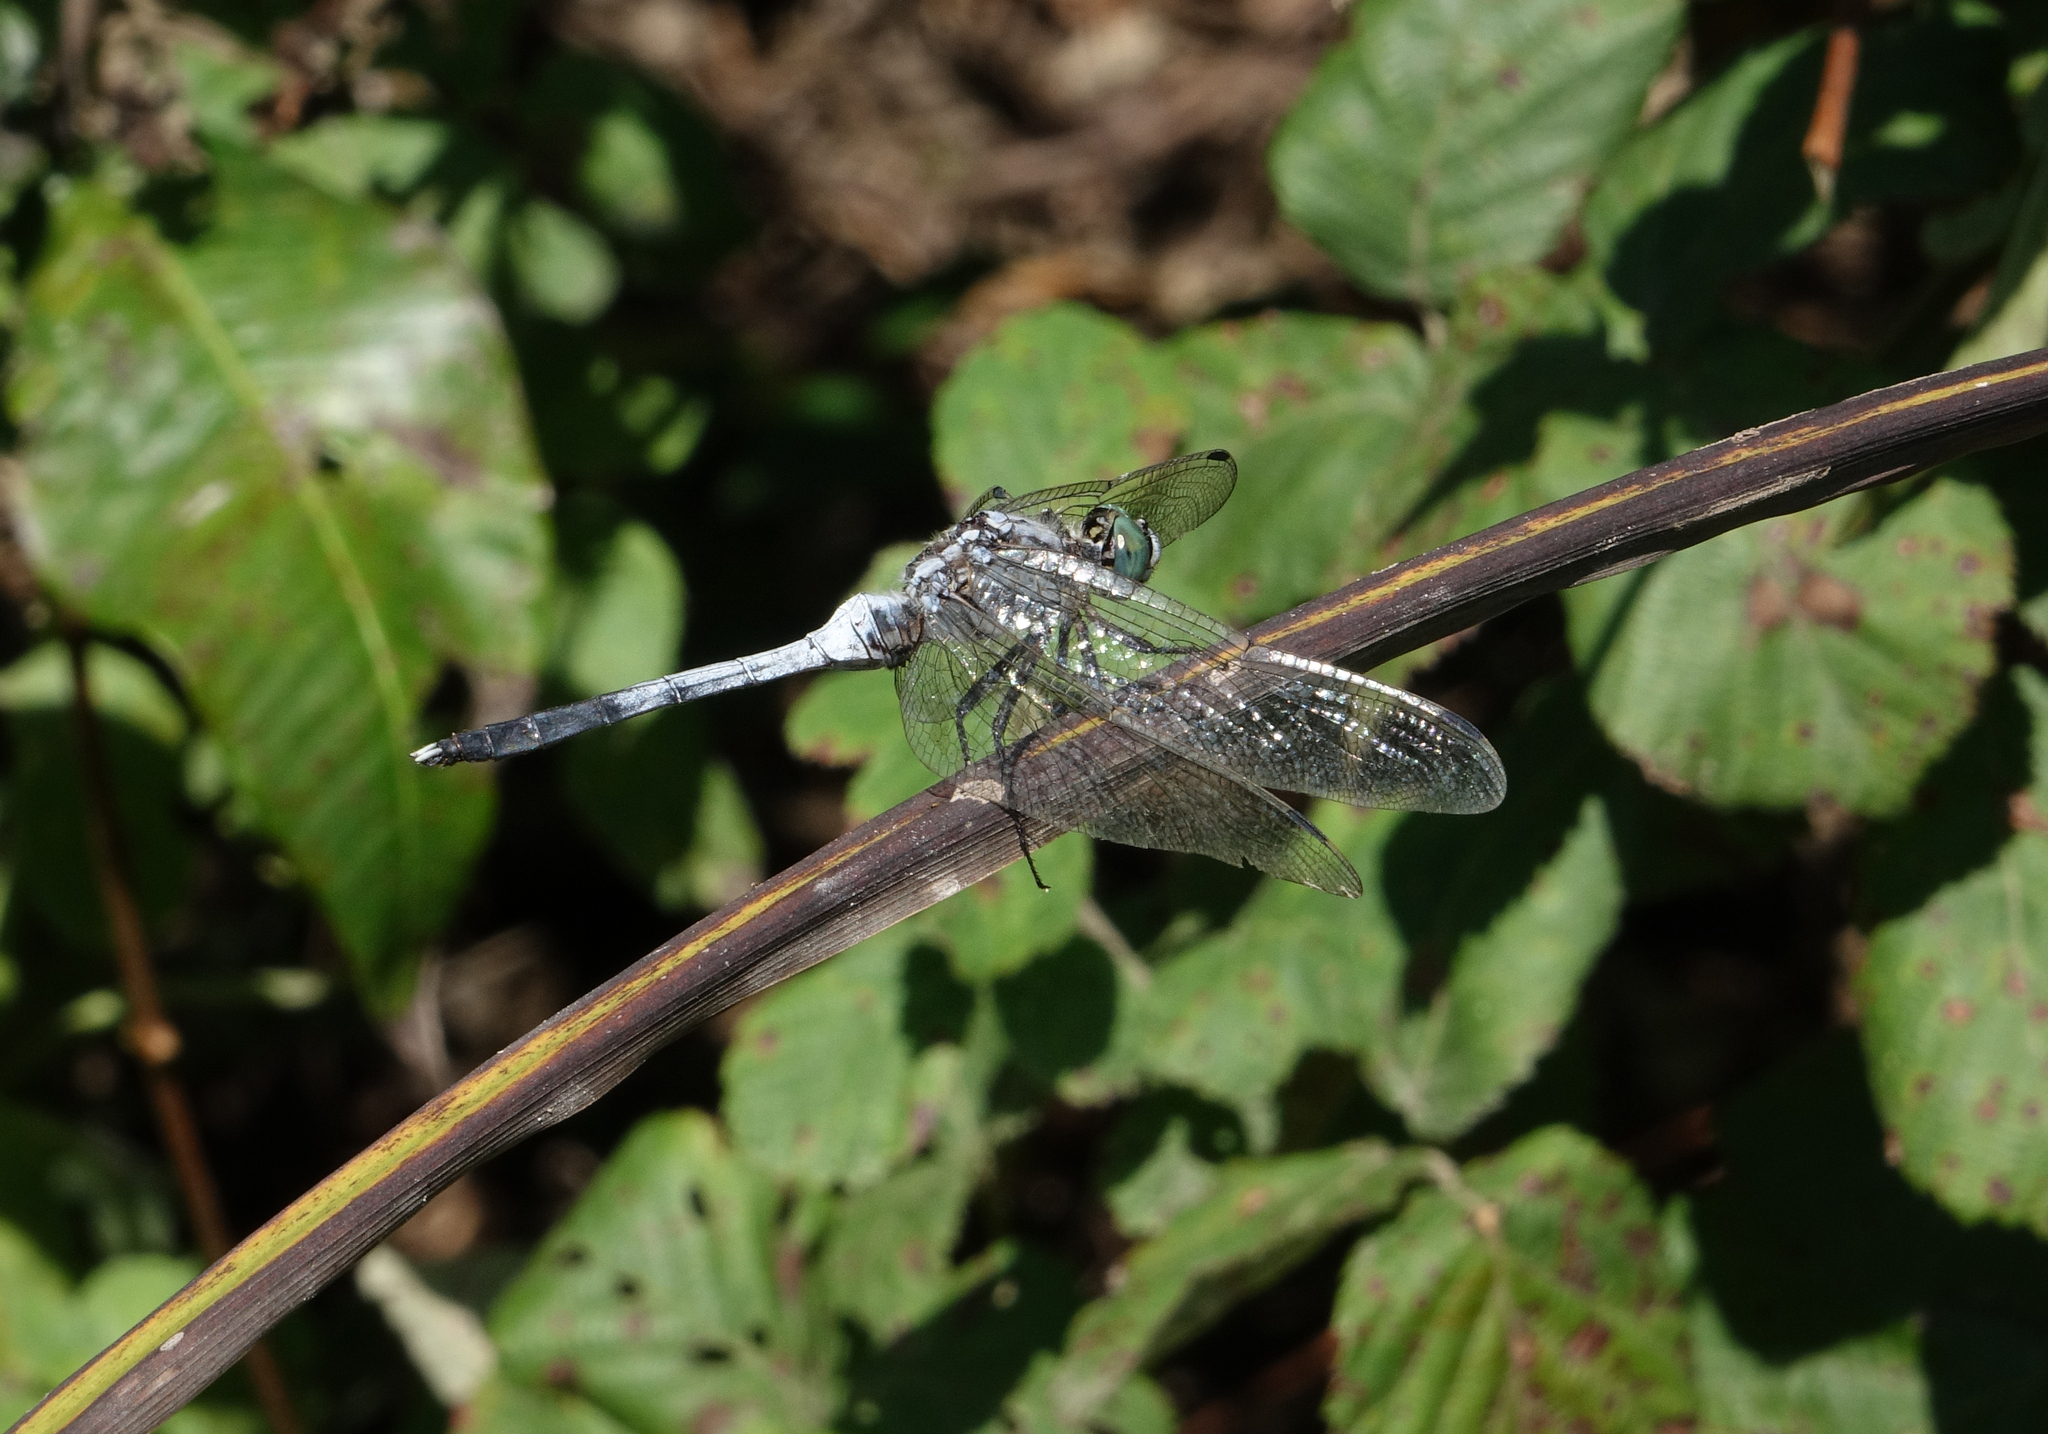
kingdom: Animalia
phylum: Arthropoda
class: Insecta
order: Odonata
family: Libellulidae
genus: Orthetrum
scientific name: Orthetrum albistylum
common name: White-tailed skimmer
